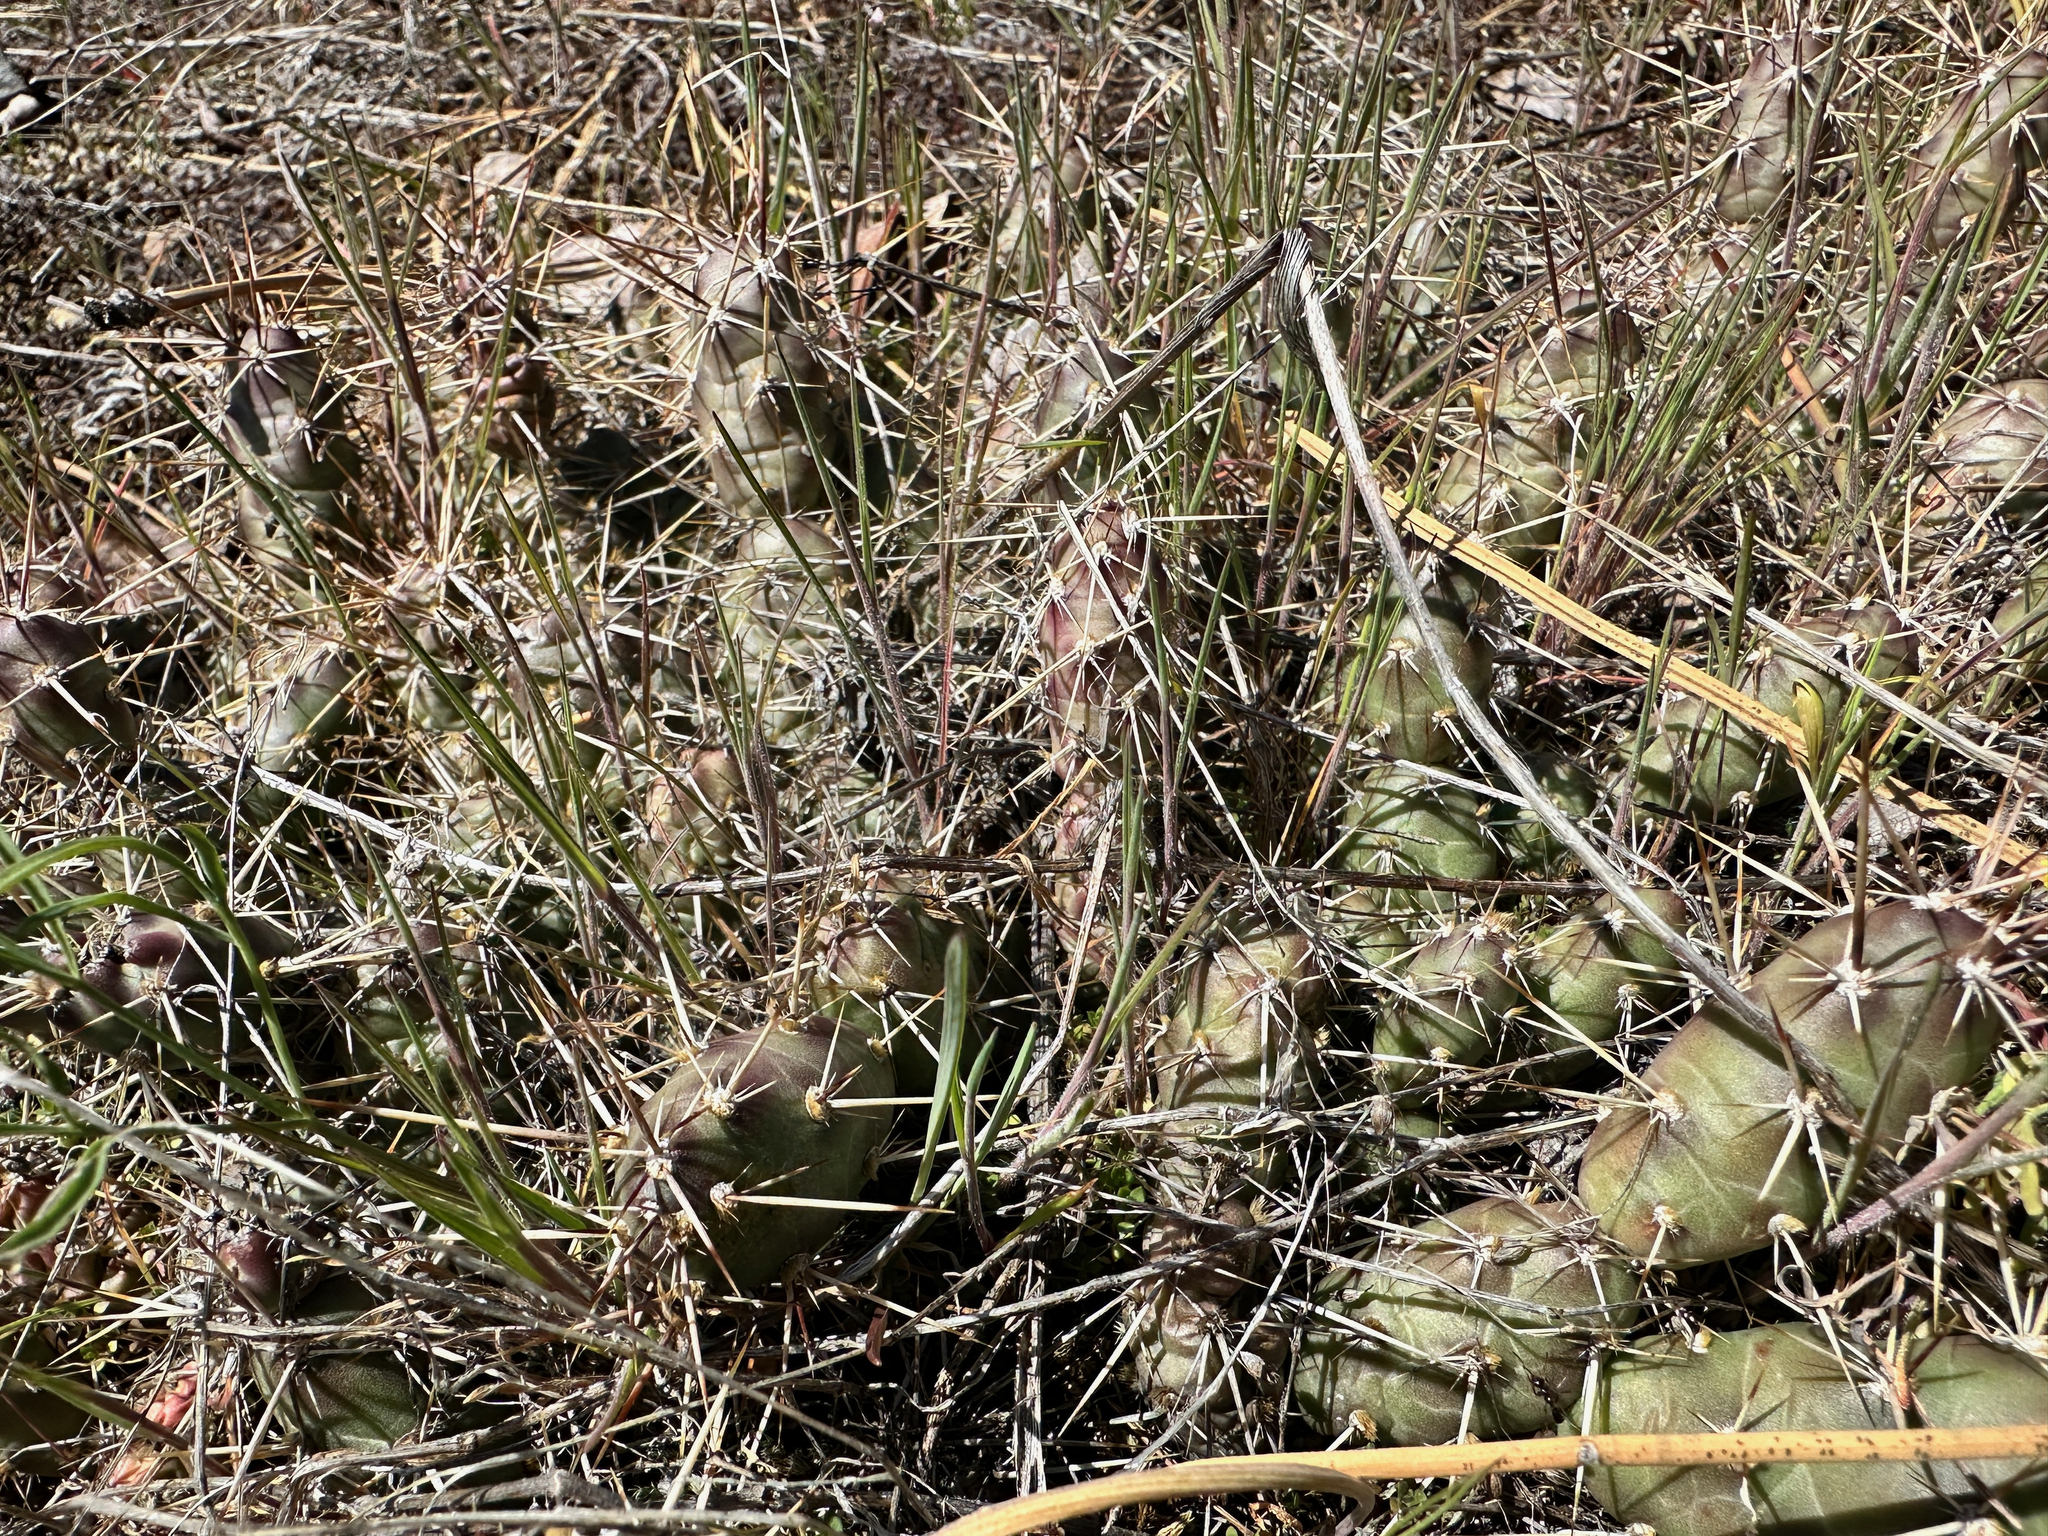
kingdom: Plantae
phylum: Tracheophyta
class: Magnoliopsida
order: Caryophyllales
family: Cactaceae
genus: Opuntia
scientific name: Opuntia fragilis
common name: Brittle cactus
